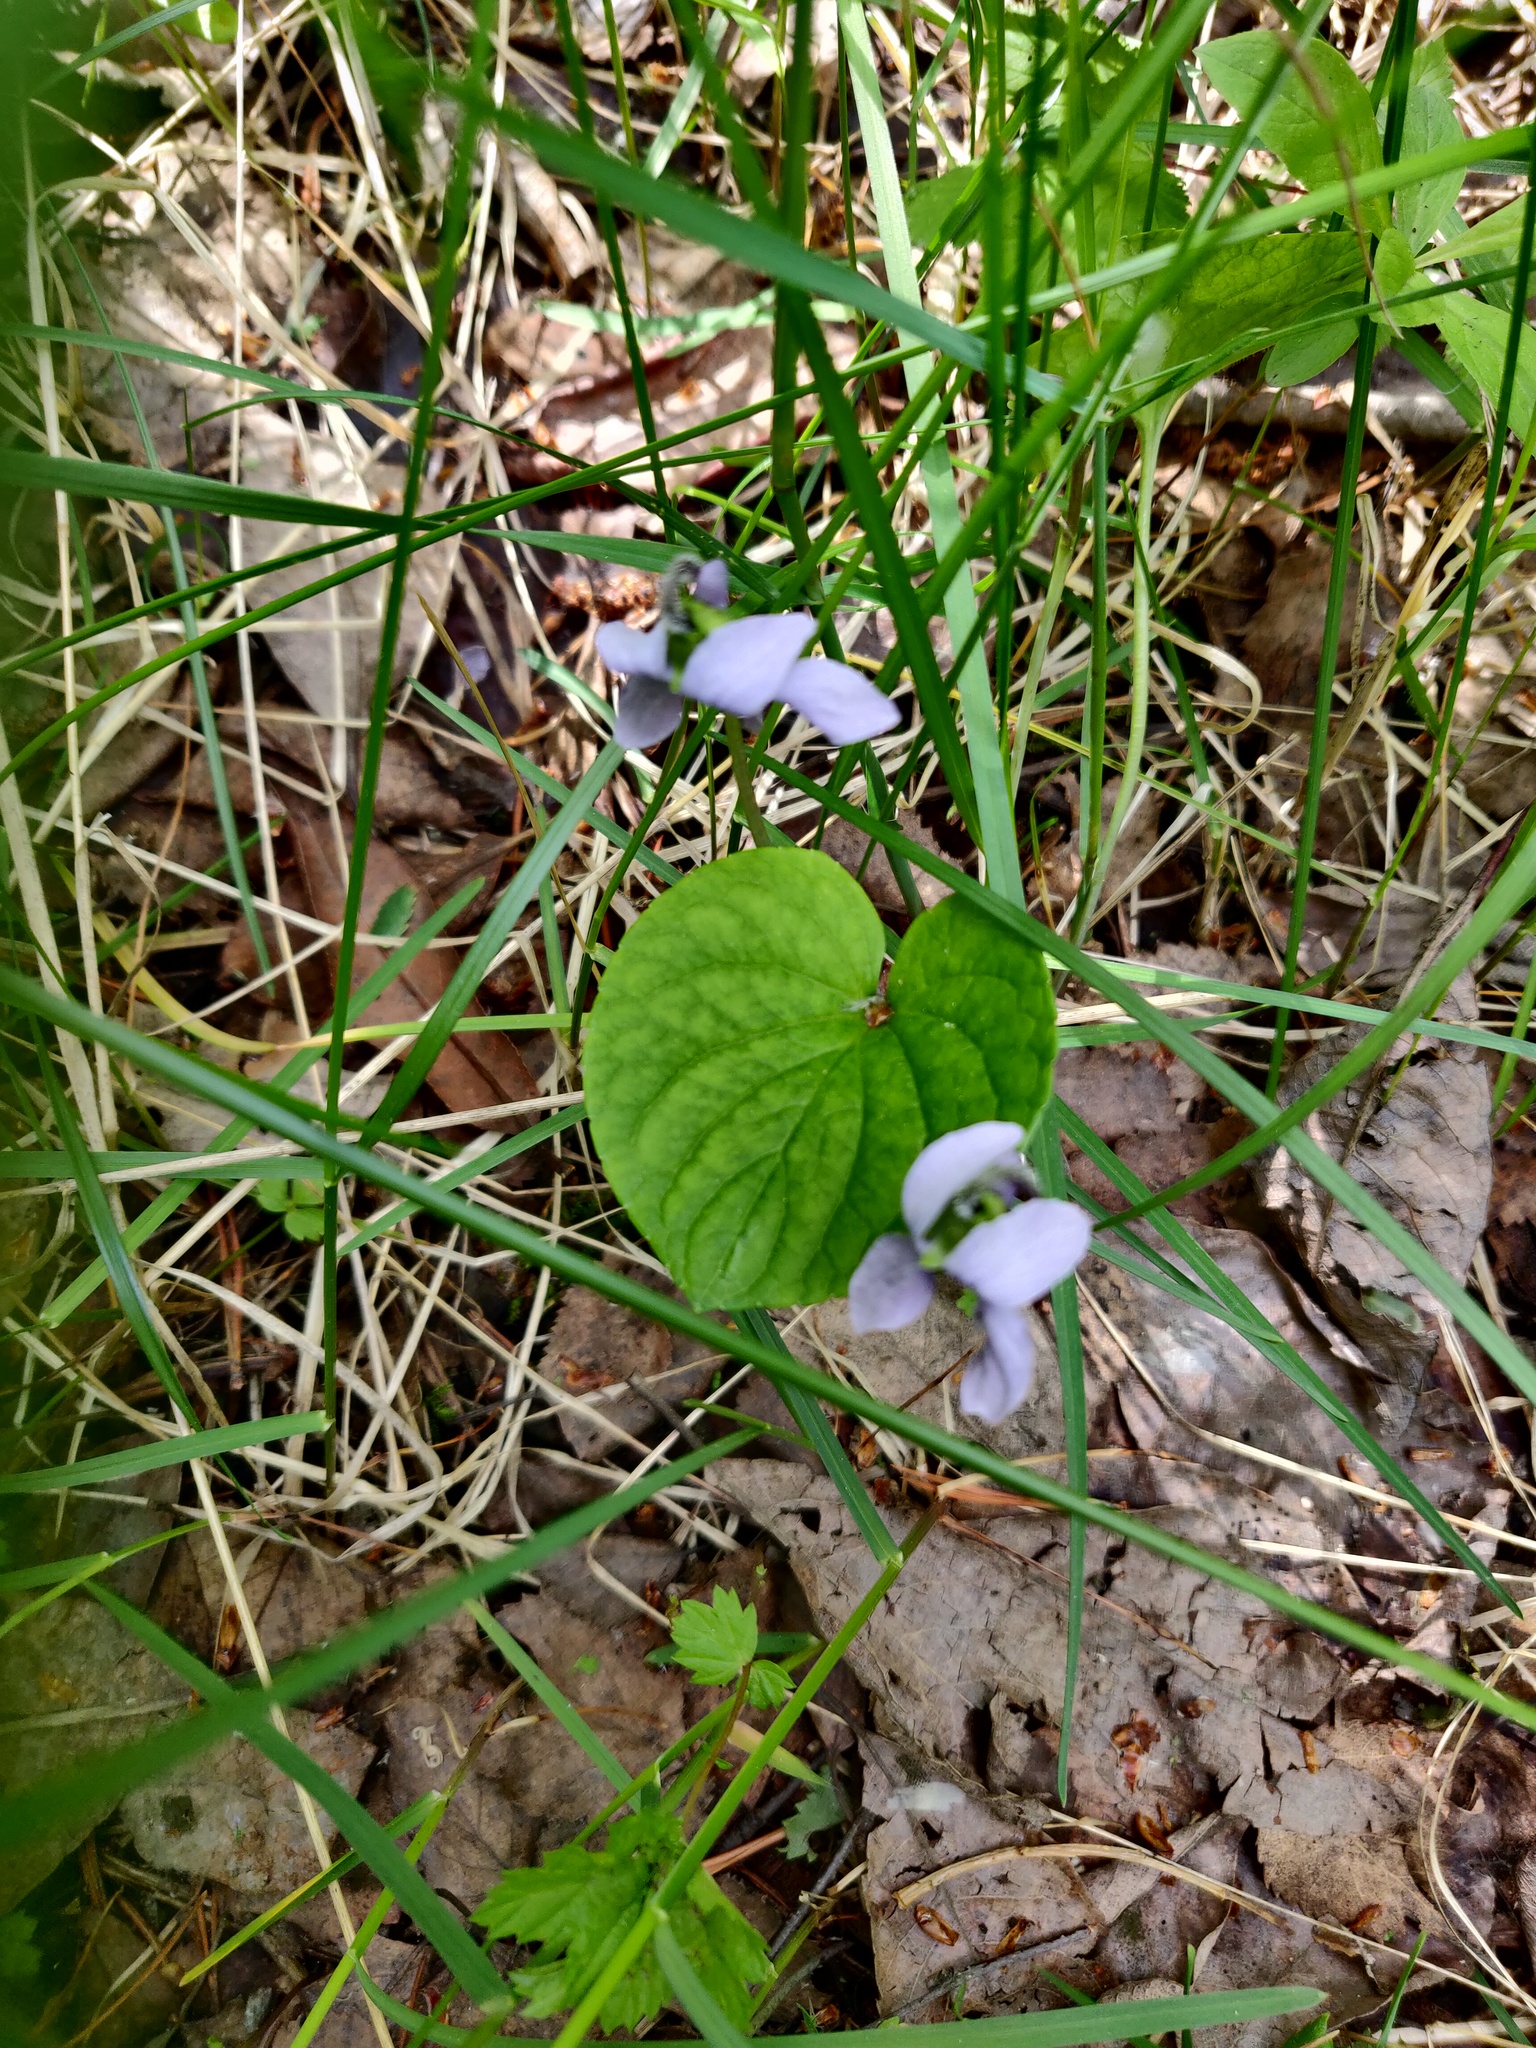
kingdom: Plantae
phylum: Tracheophyta
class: Magnoliopsida
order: Malpighiales
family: Violaceae
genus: Viola
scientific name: Viola epipsila
